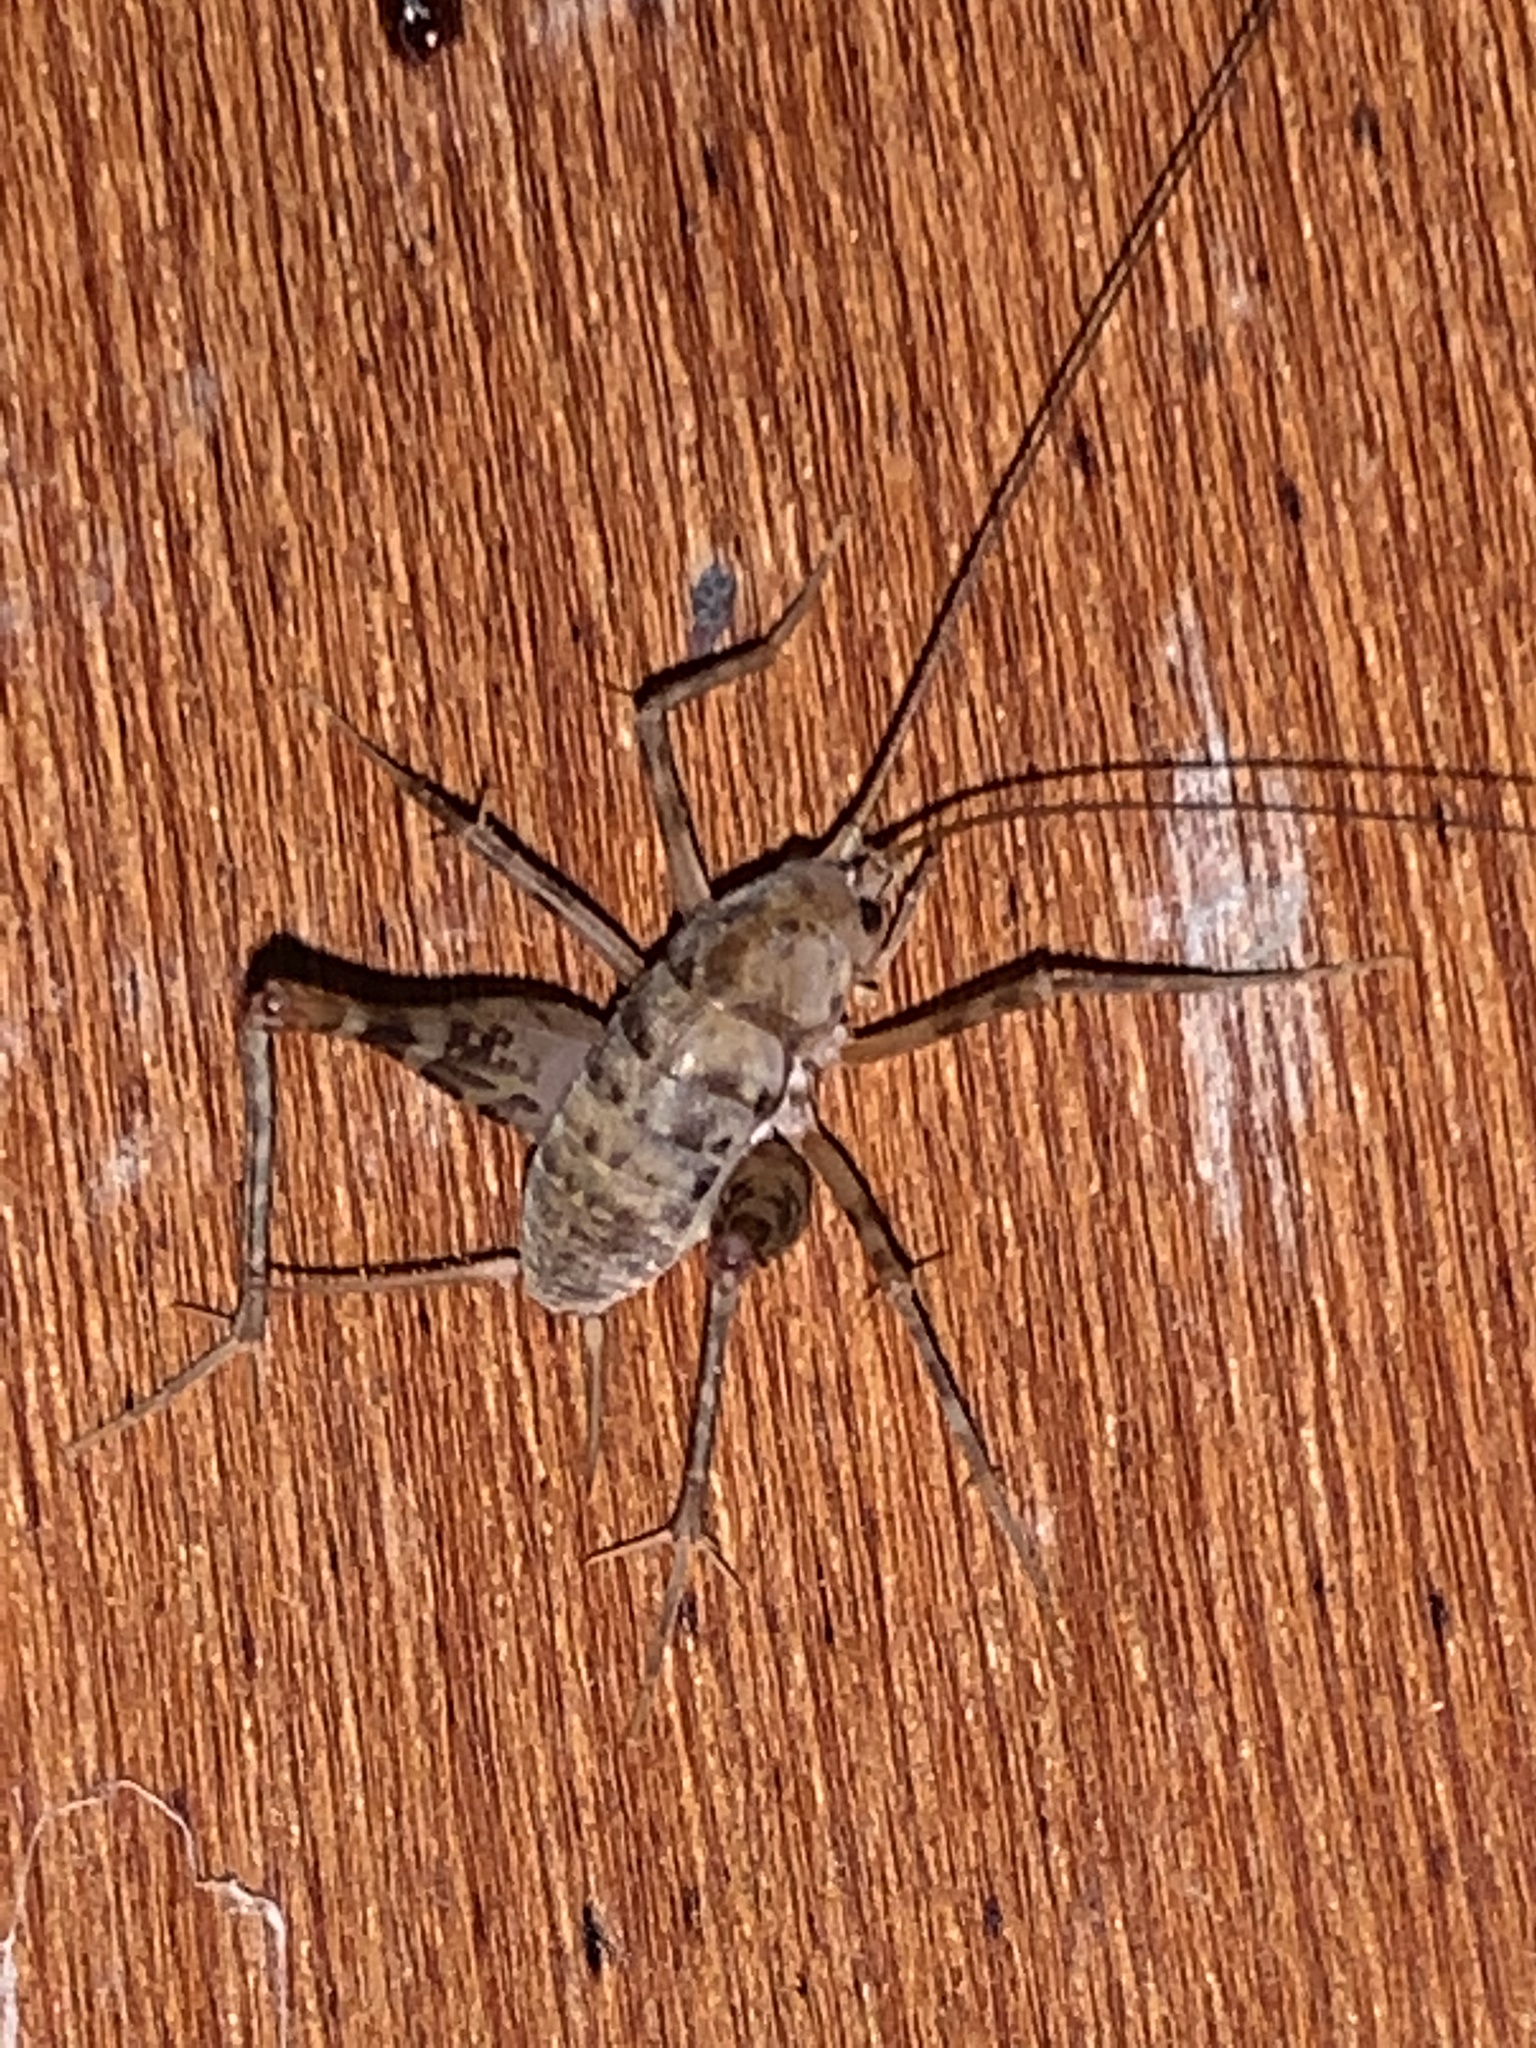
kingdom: Animalia
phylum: Arthropoda
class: Insecta
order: Orthoptera
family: Rhaphidophoridae
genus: Tachycines
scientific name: Tachycines asynamorus
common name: Greenhouse camel cricket
